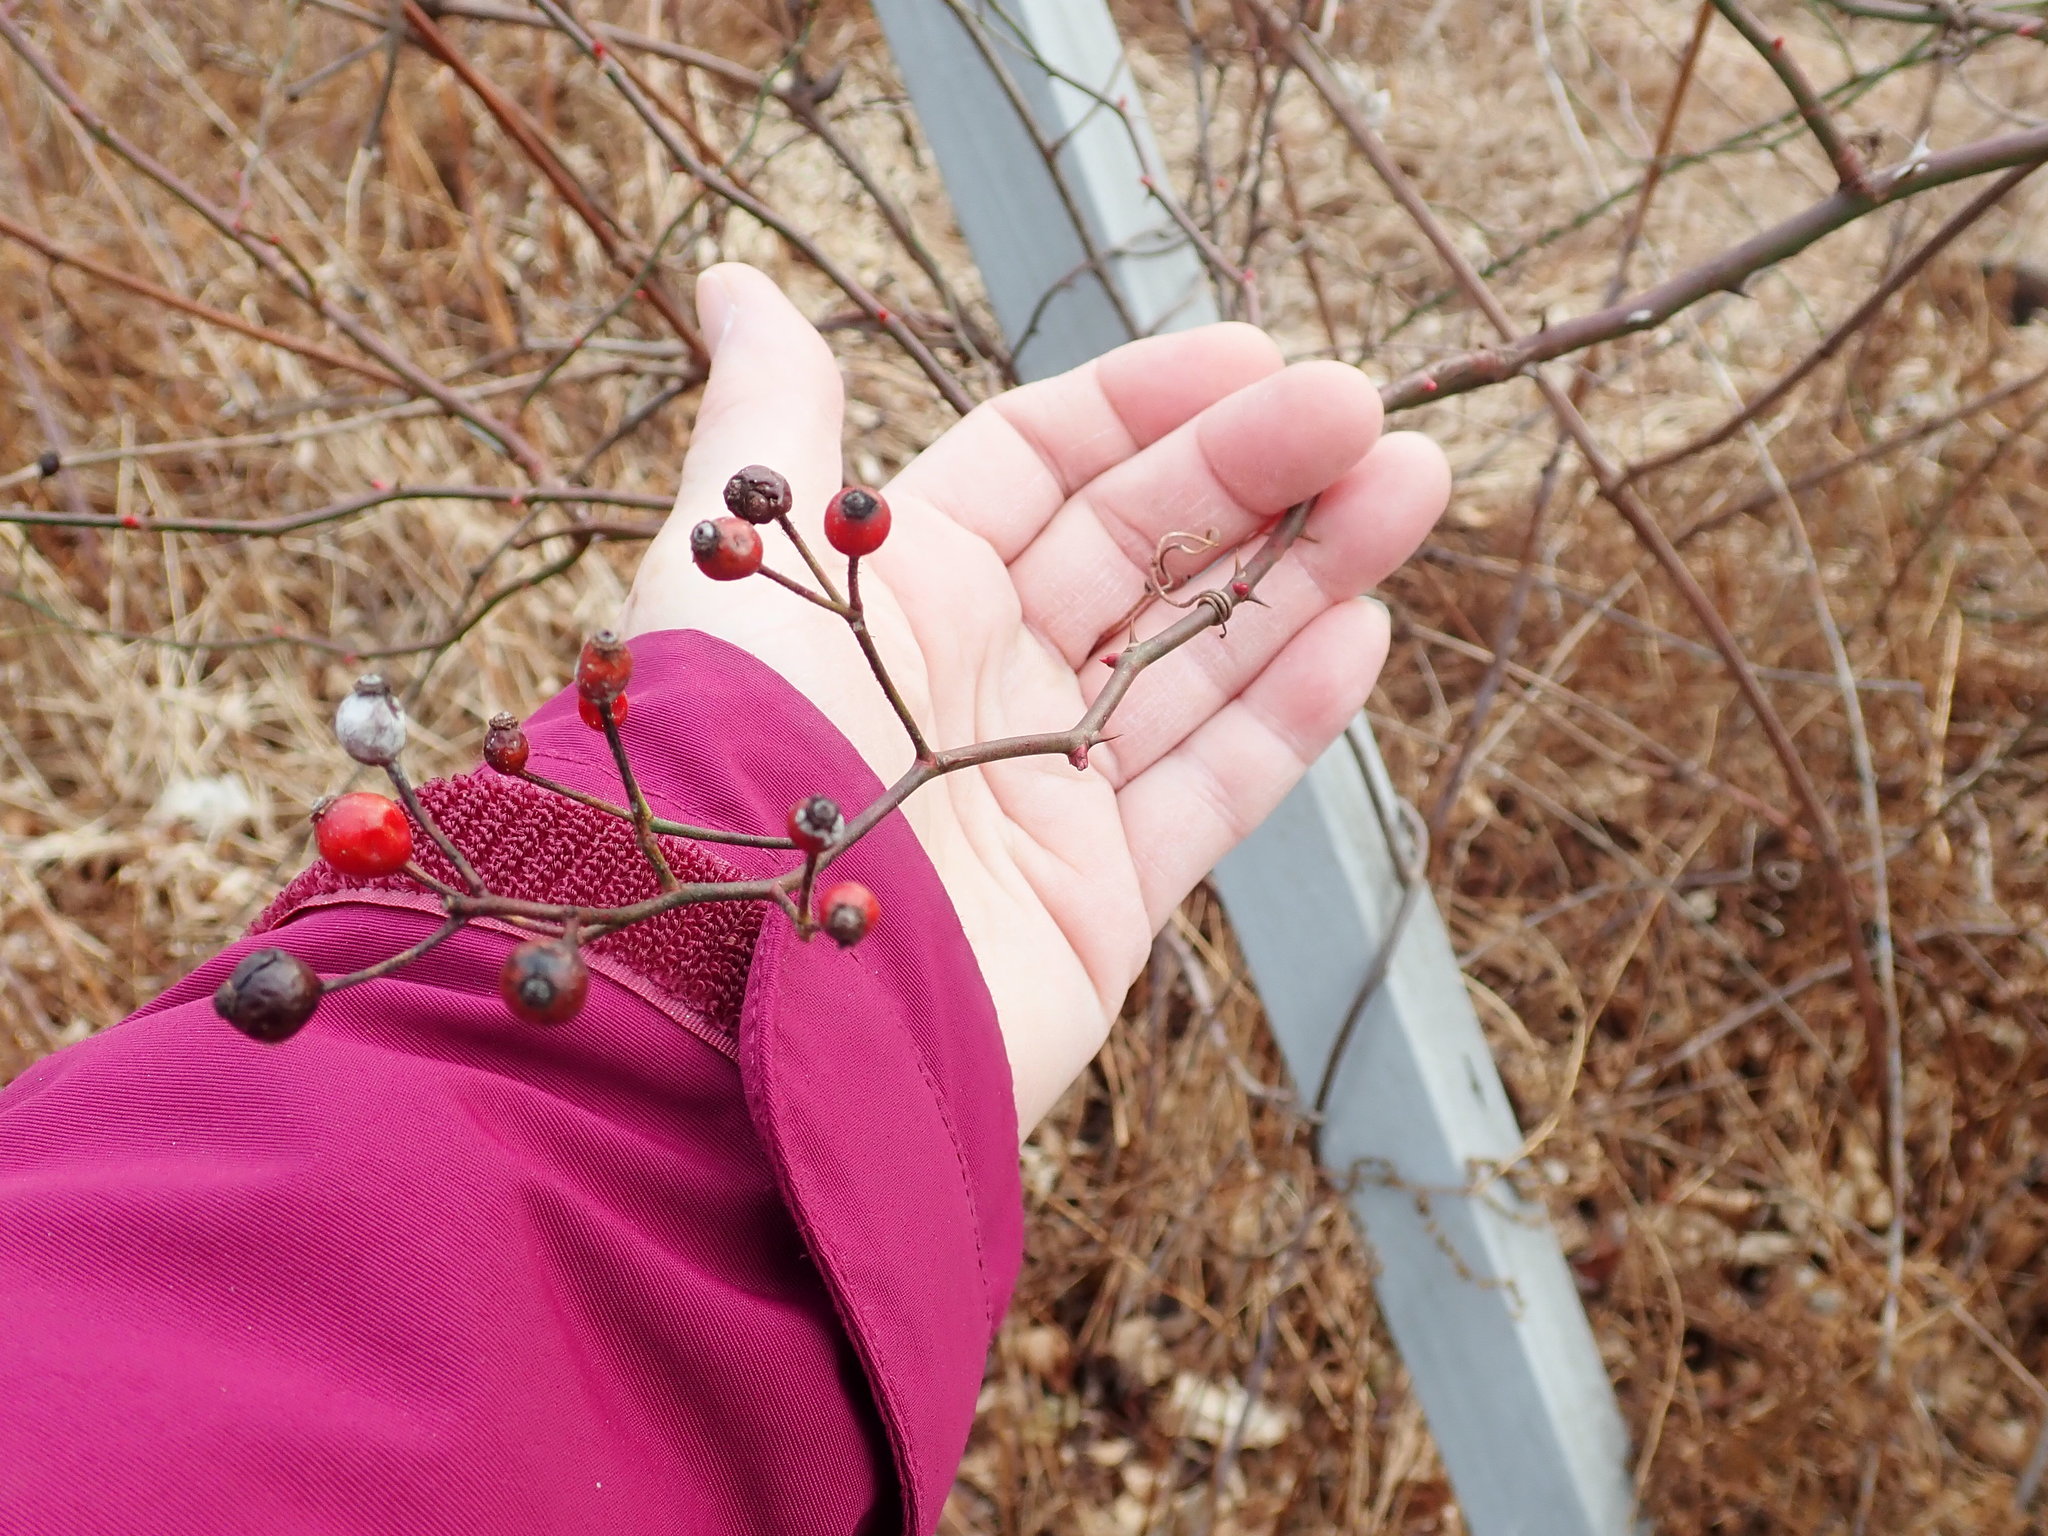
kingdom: Plantae
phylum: Tracheophyta
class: Magnoliopsida
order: Rosales
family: Rosaceae
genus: Rosa
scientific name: Rosa multiflora
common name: Multiflora rose
